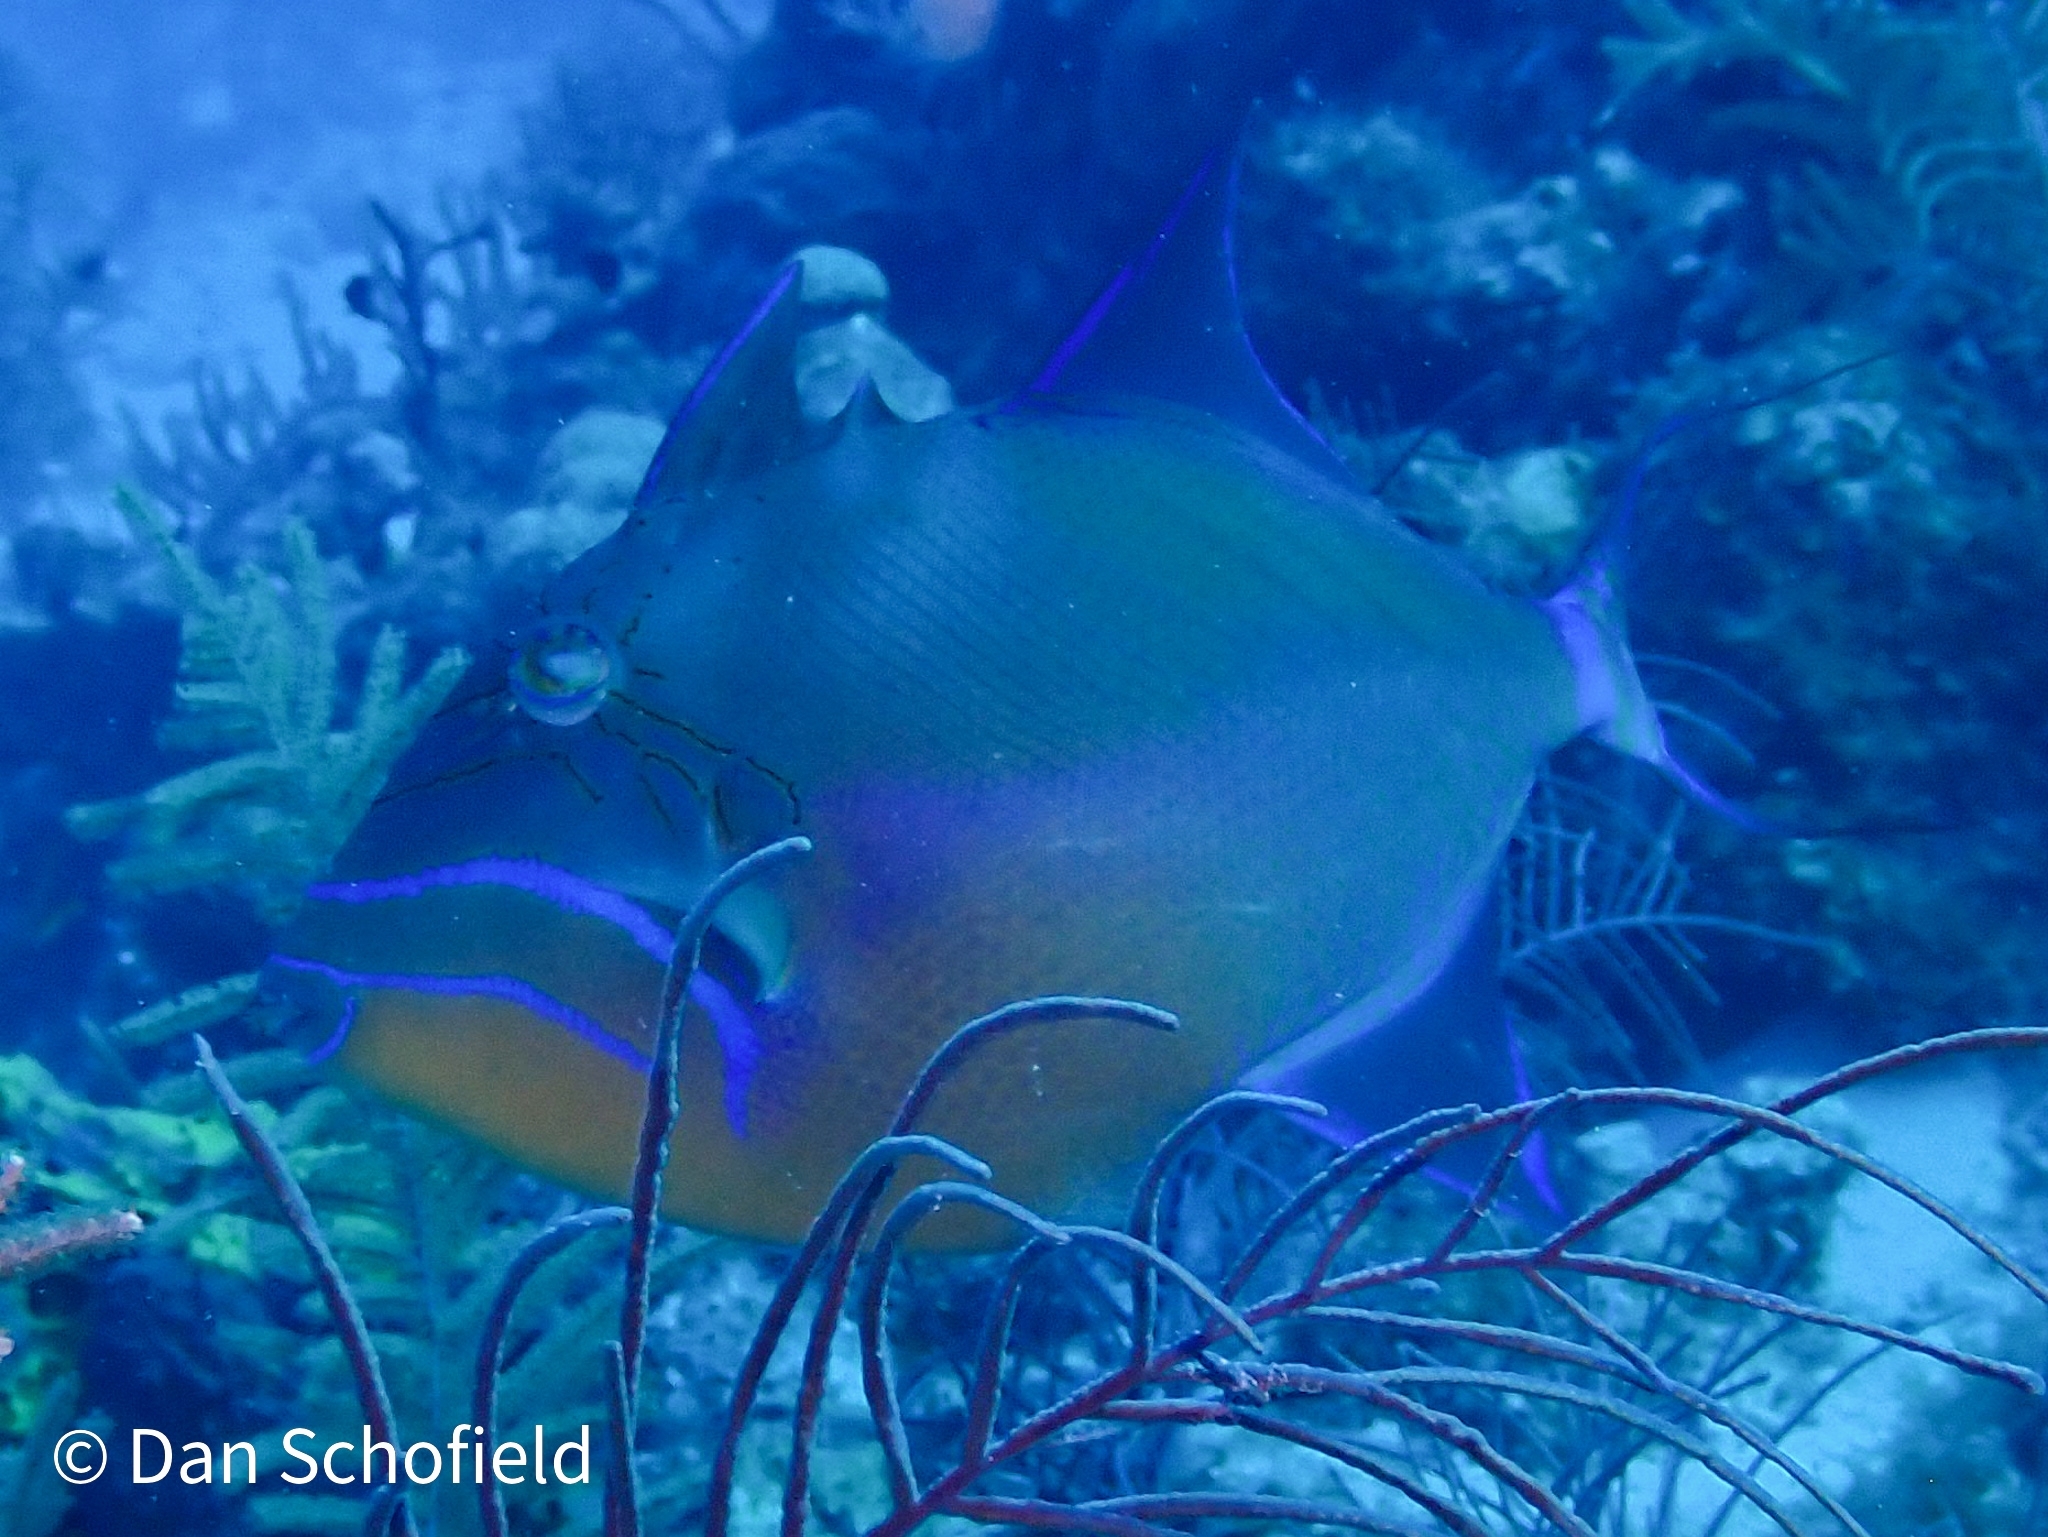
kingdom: Animalia
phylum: Chordata
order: Tetraodontiformes
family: Balistidae
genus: Balistes
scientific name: Balistes vetula
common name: Queen triggerfish
